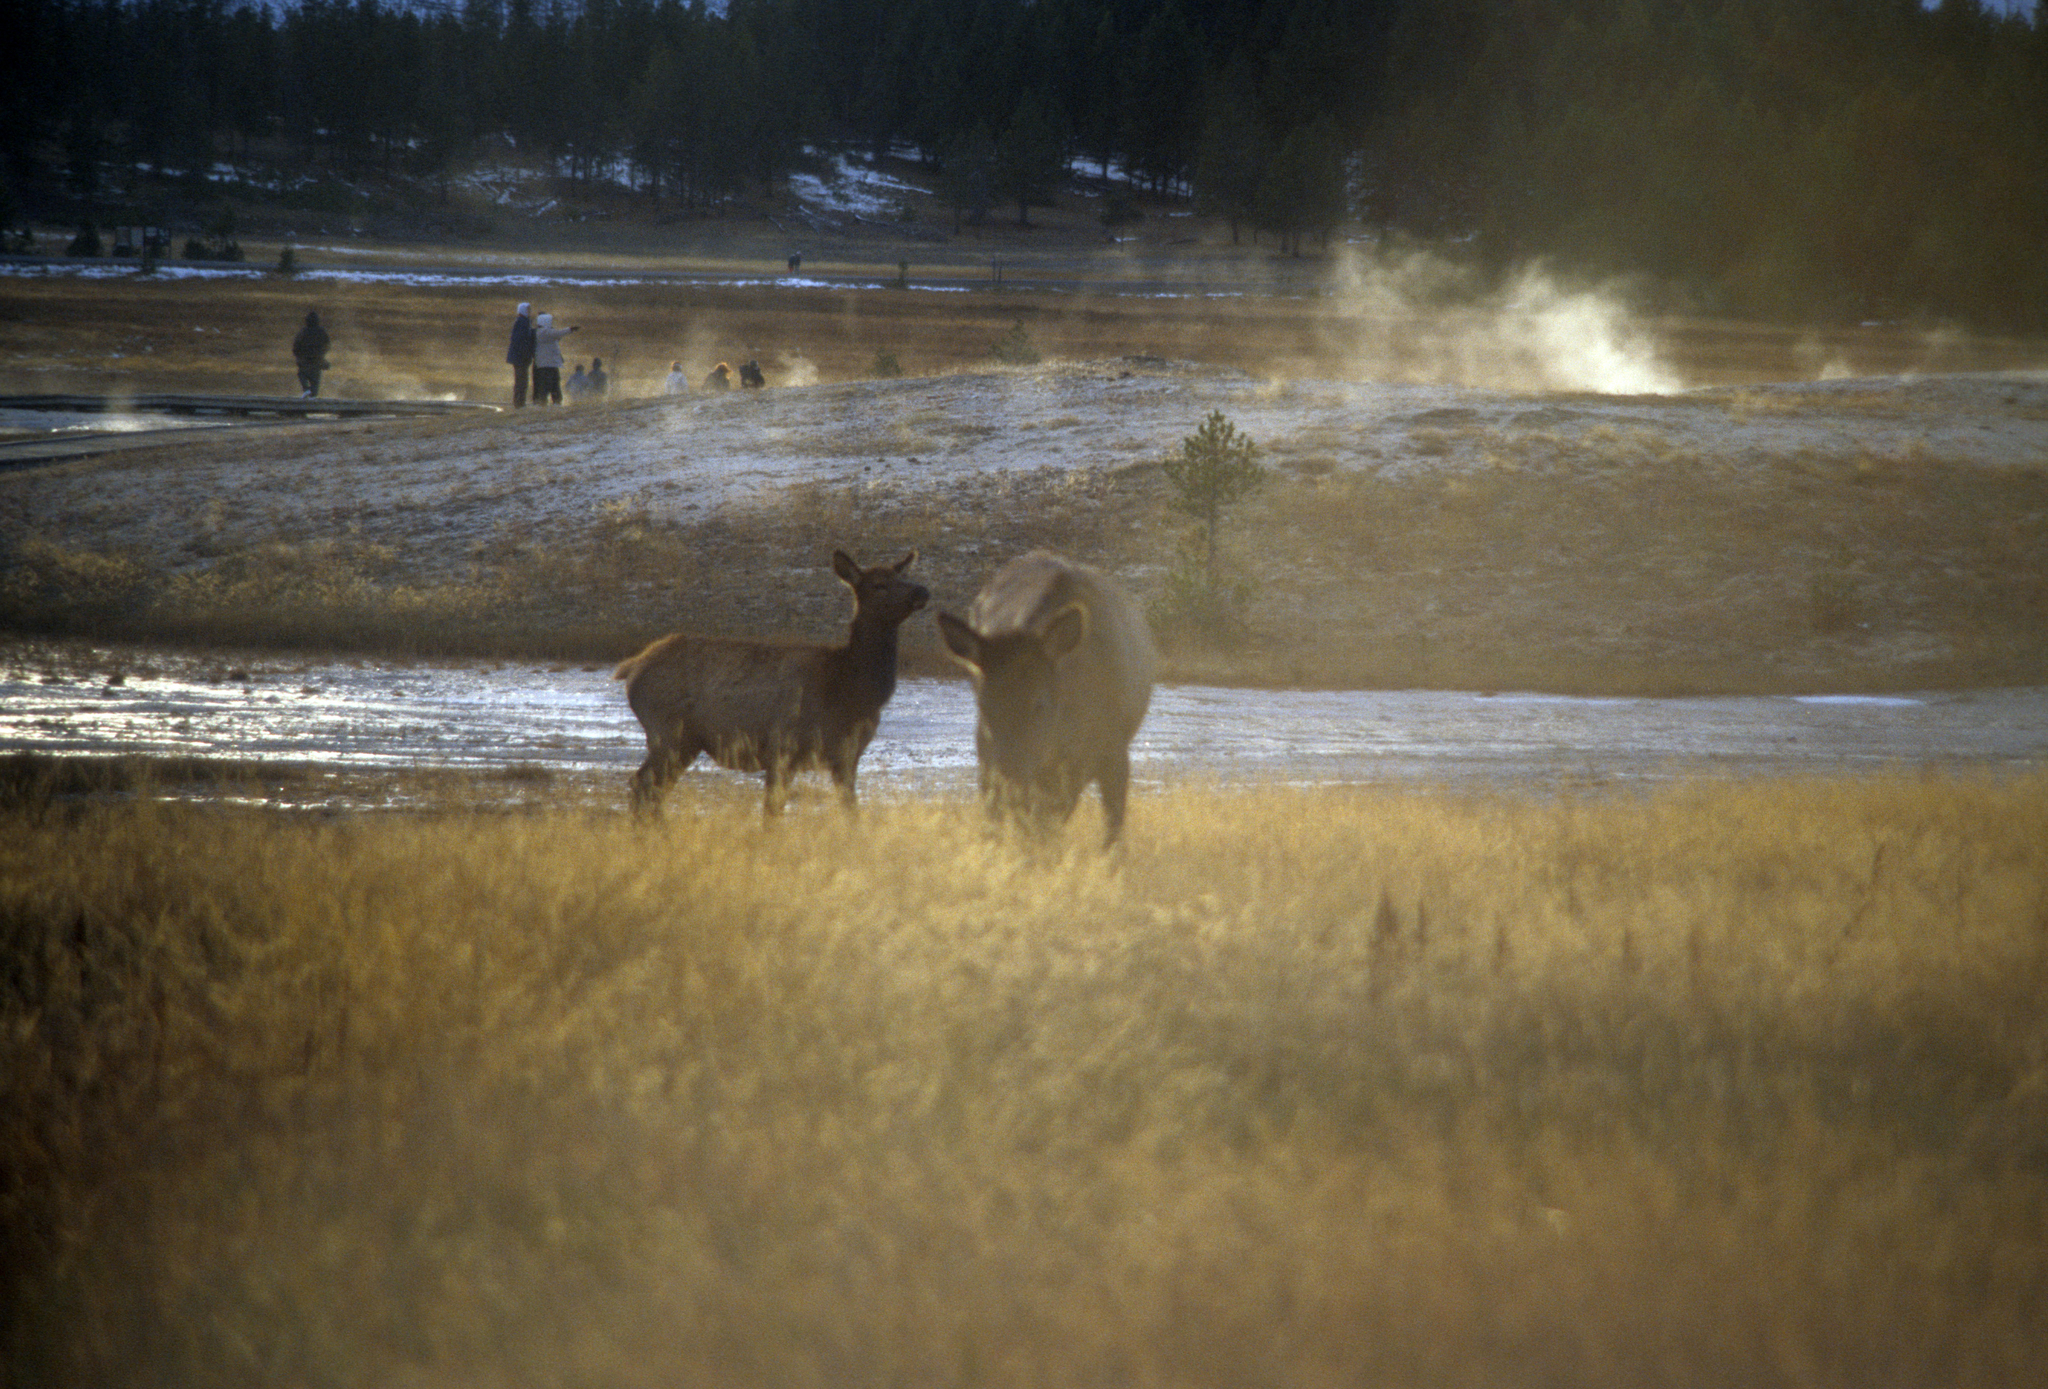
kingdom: Animalia
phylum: Chordata
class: Mammalia
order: Artiodactyla
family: Cervidae
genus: Cervus
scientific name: Cervus elaphus
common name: Red deer
